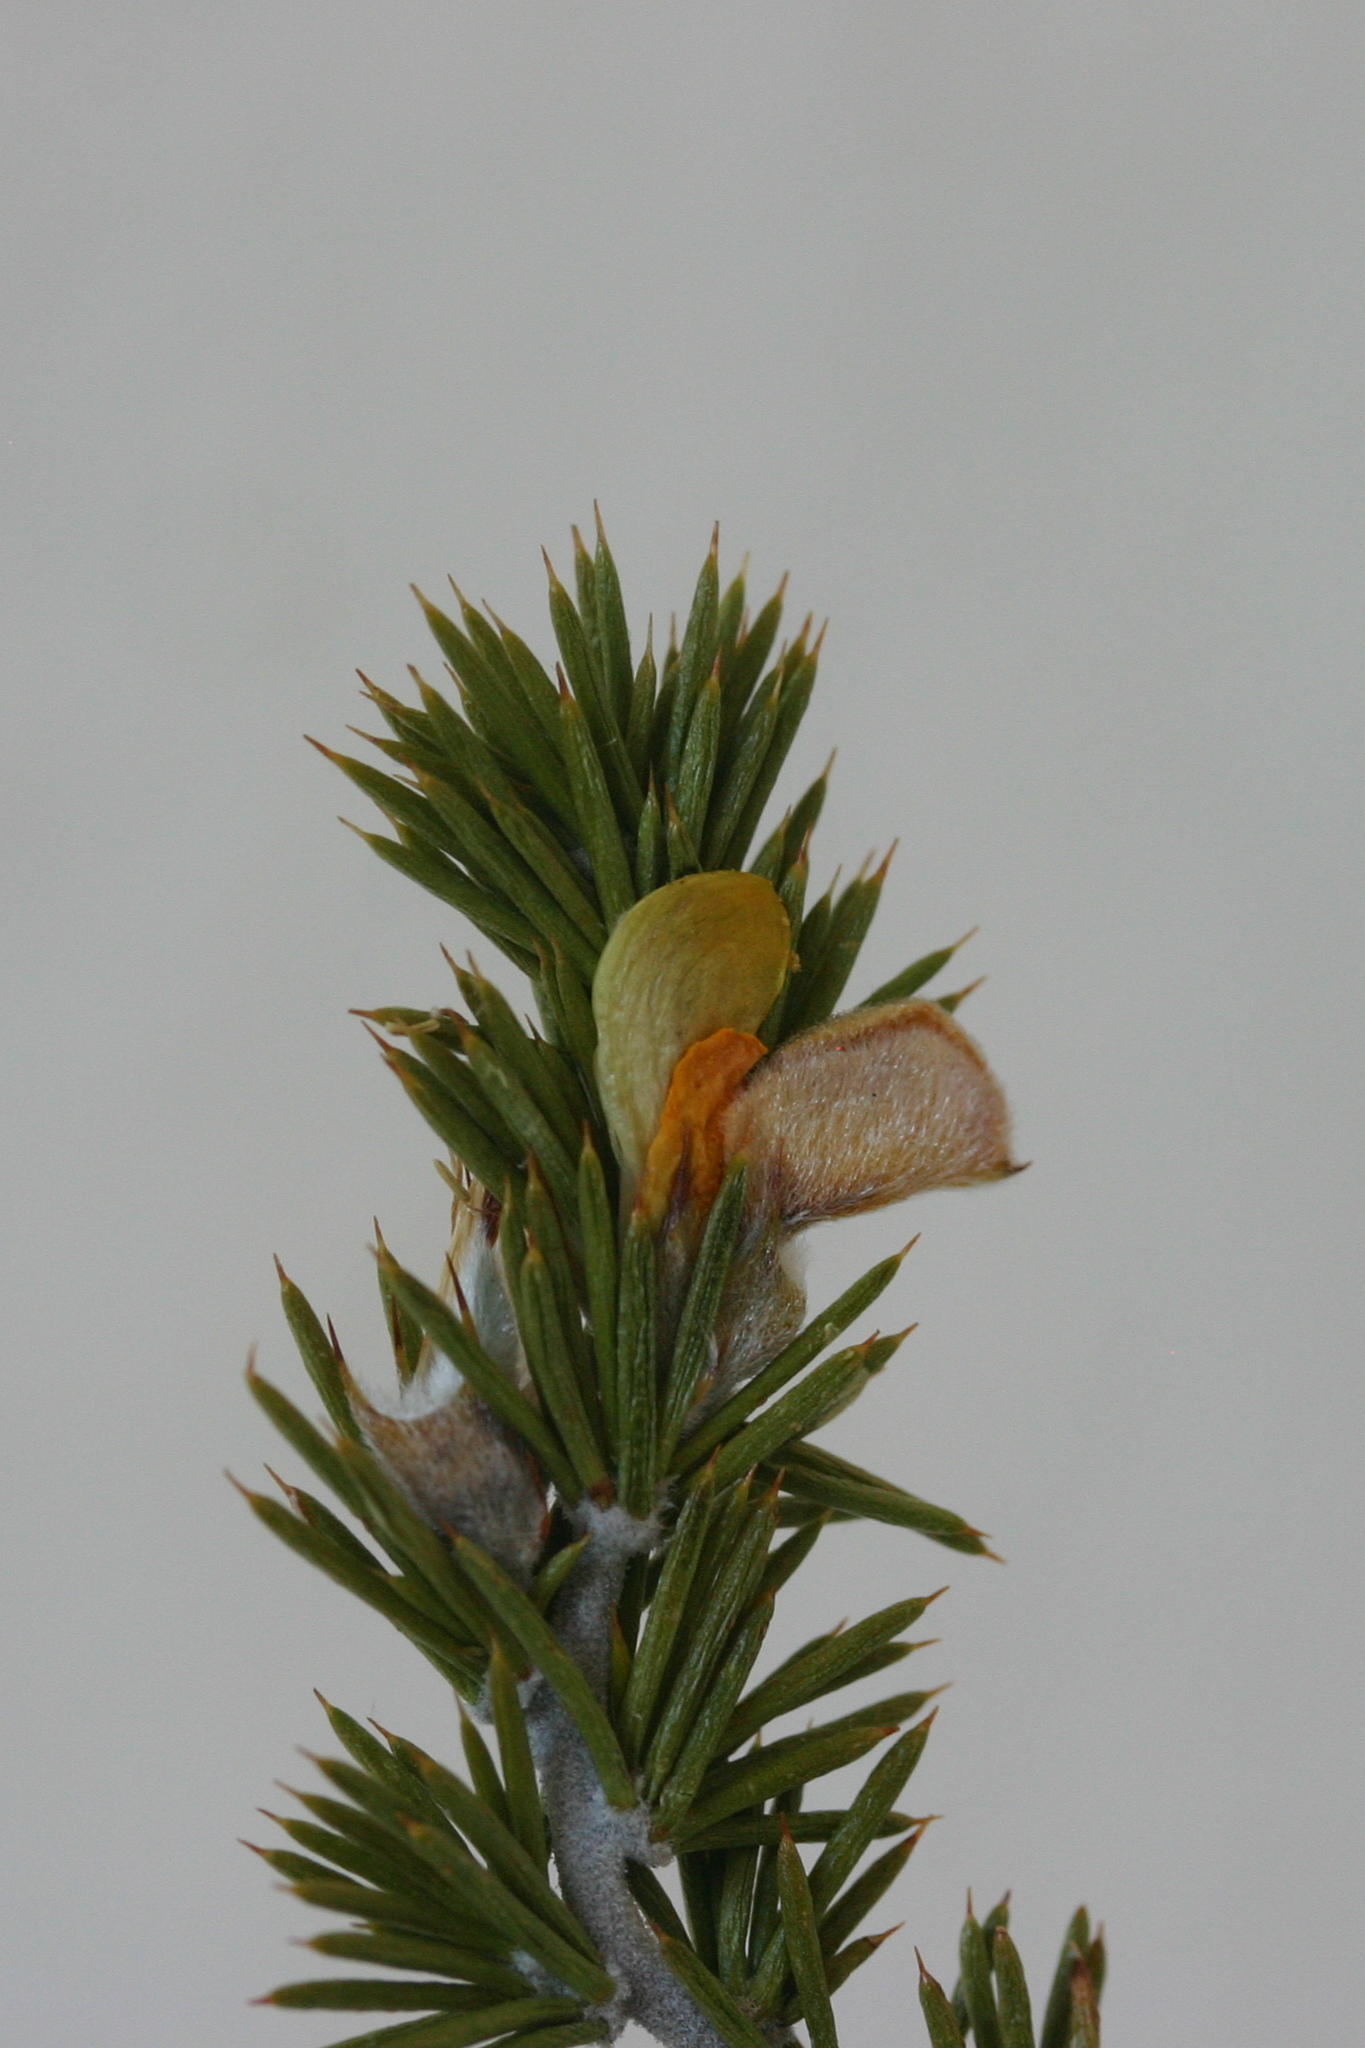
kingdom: Plantae
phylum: Tracheophyta
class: Magnoliopsida
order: Fabales
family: Fabaceae
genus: Aspalathus
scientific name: Aspalathus hirta
